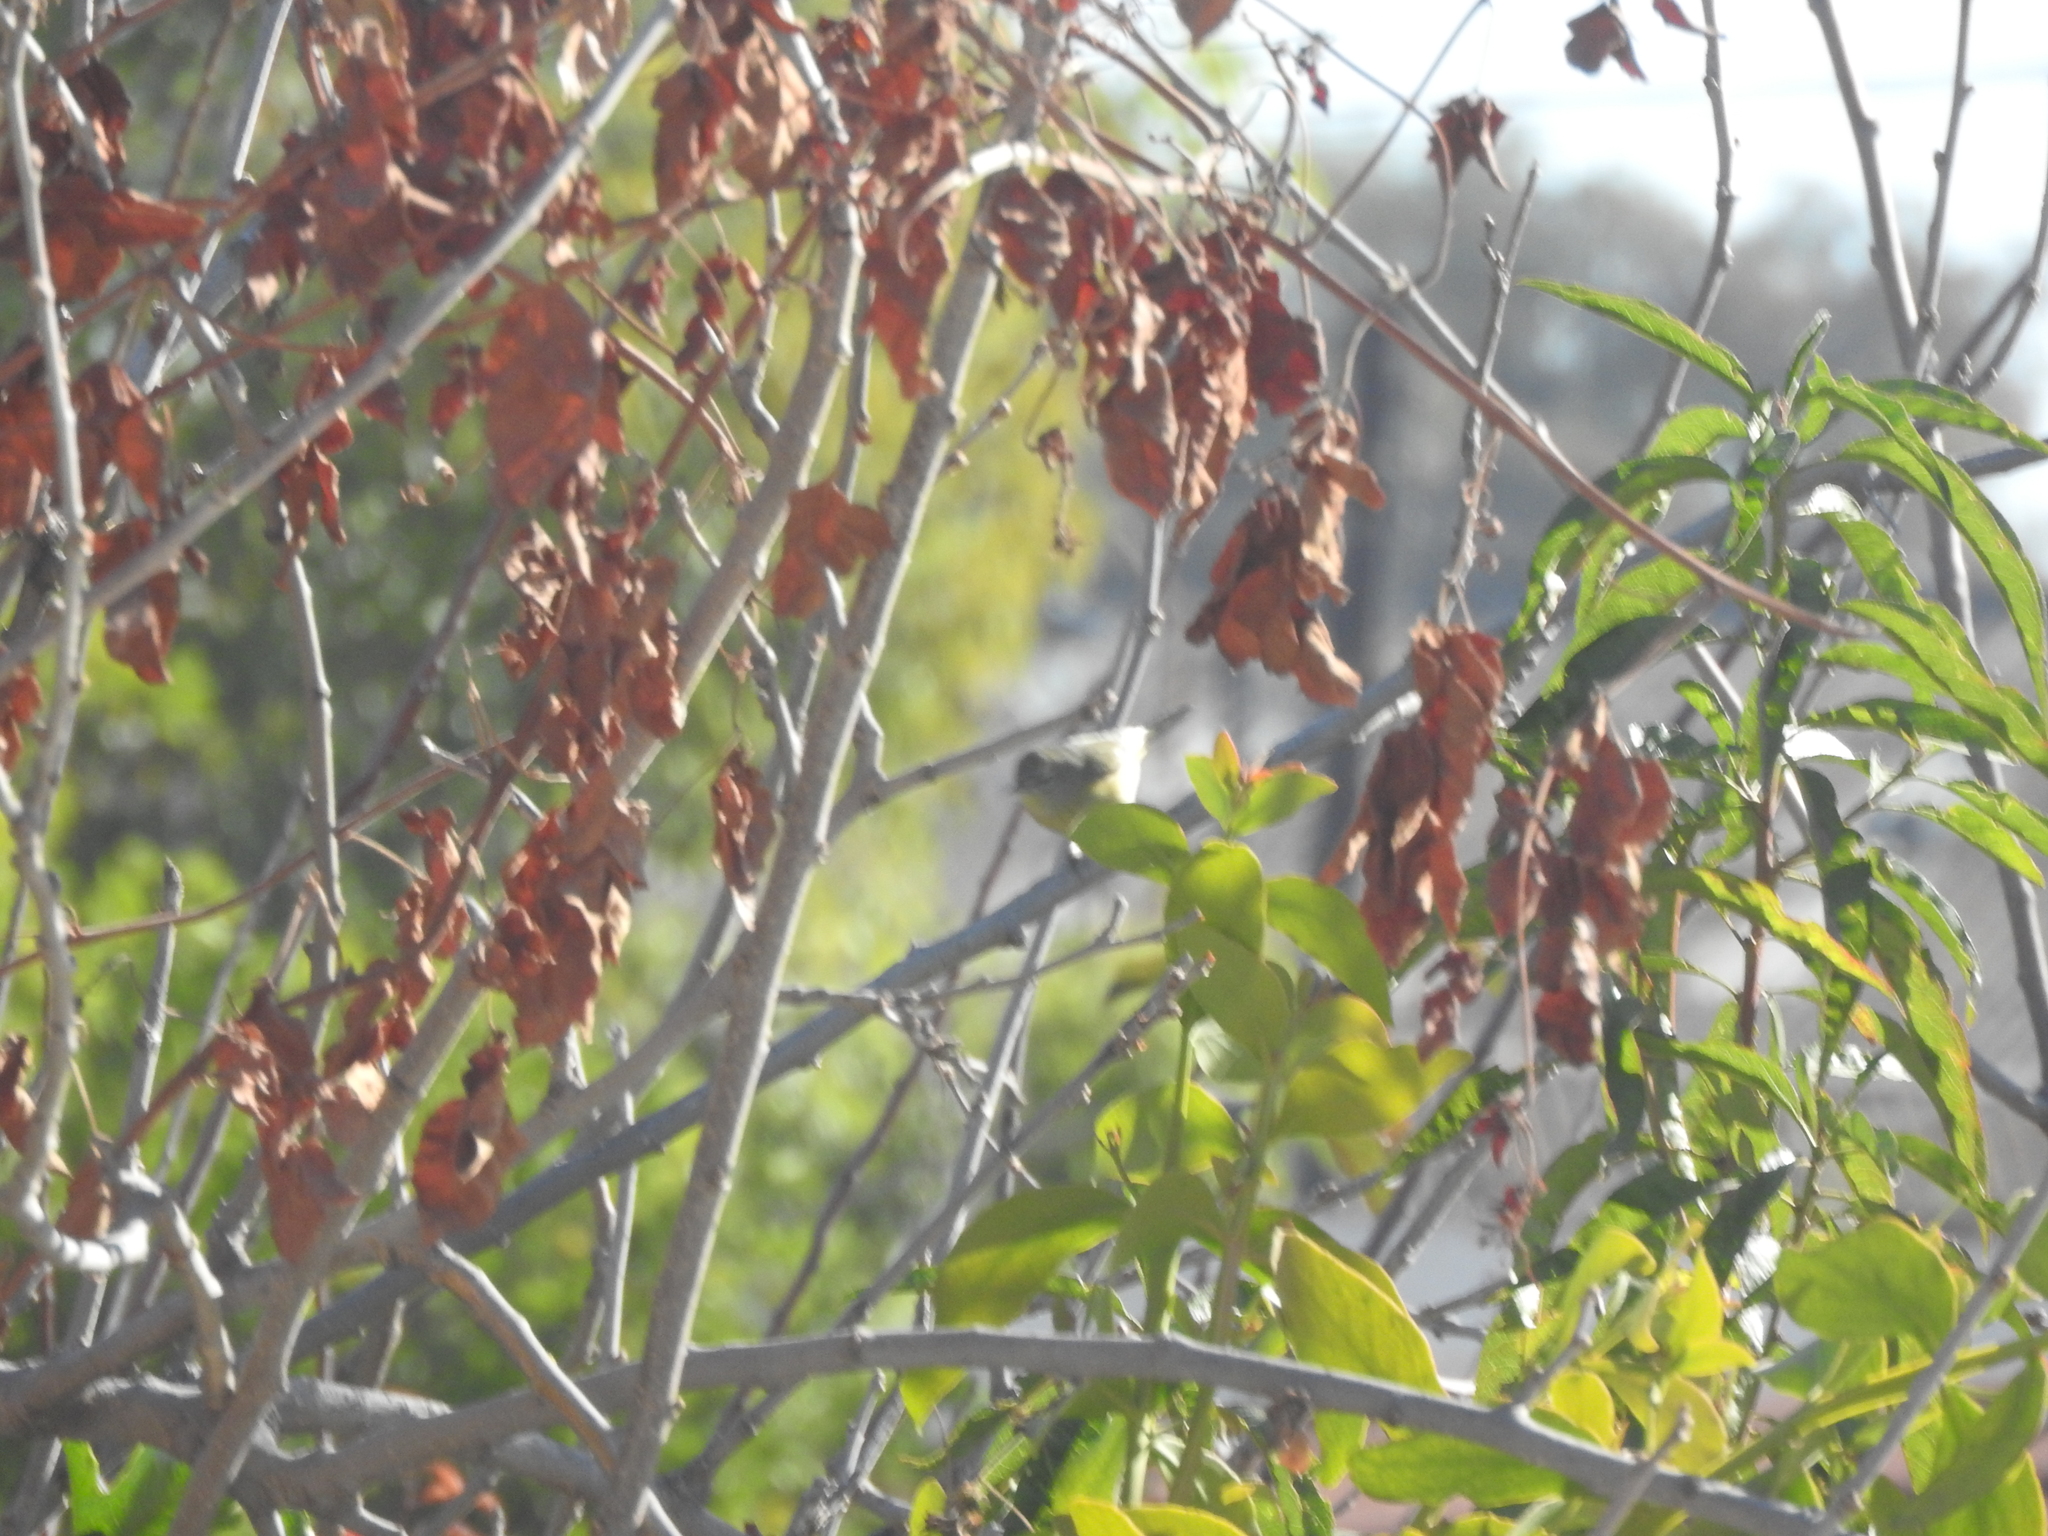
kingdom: Animalia
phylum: Chordata
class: Aves
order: Passeriformes
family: Parulidae
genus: Leiothlypis
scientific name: Leiothlypis virginiae
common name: Virginia's warbler
